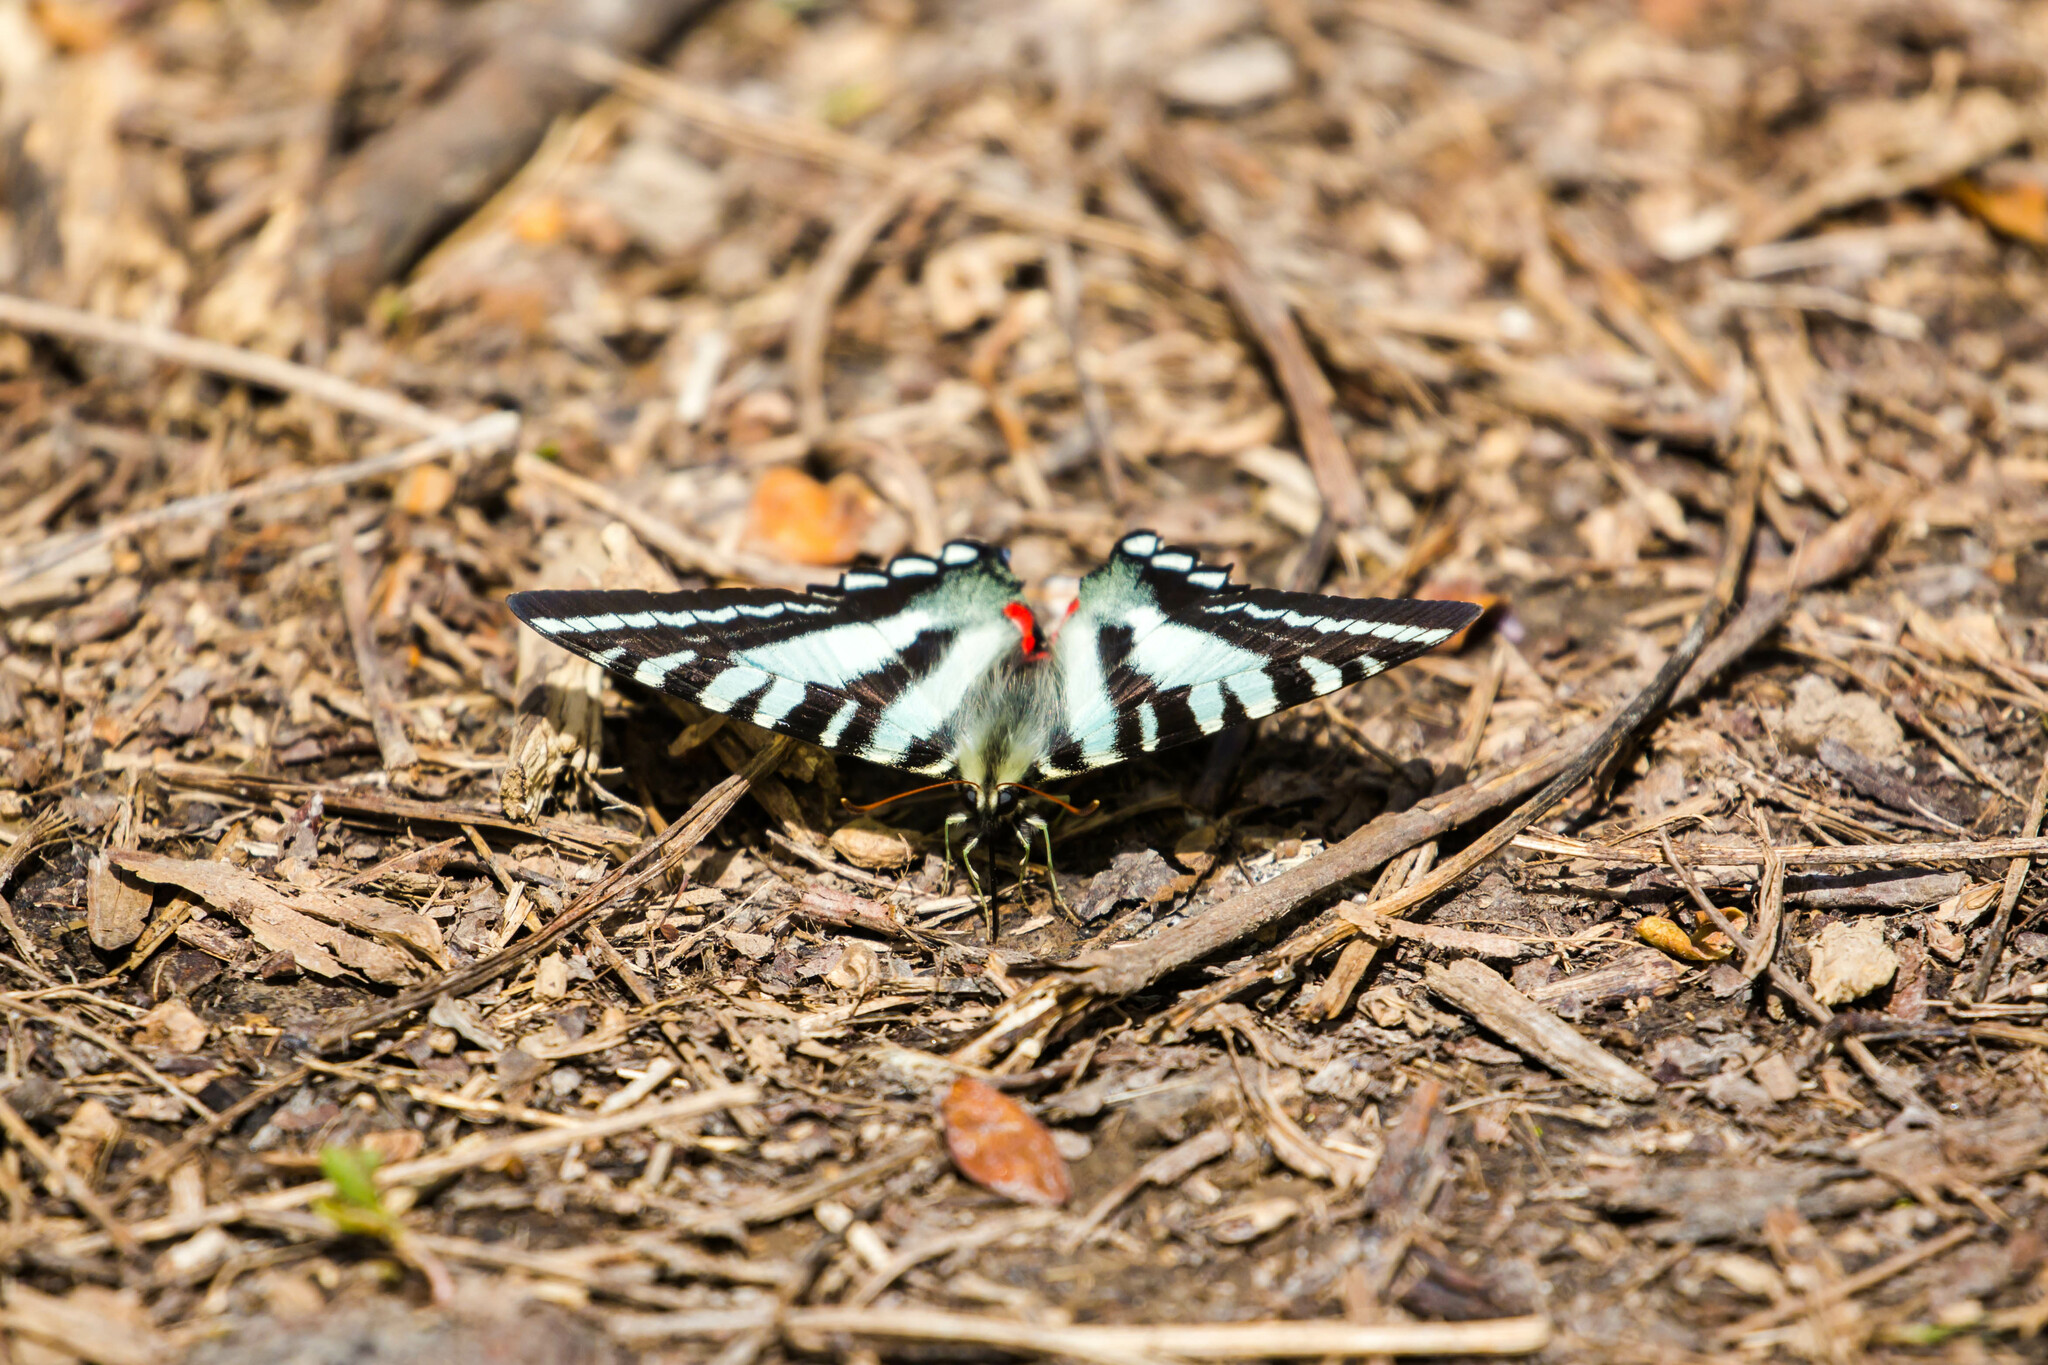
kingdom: Animalia
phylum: Arthropoda
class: Insecta
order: Lepidoptera
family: Papilionidae
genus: Protographium
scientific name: Protographium marcellus
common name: Zebra swallowtail
